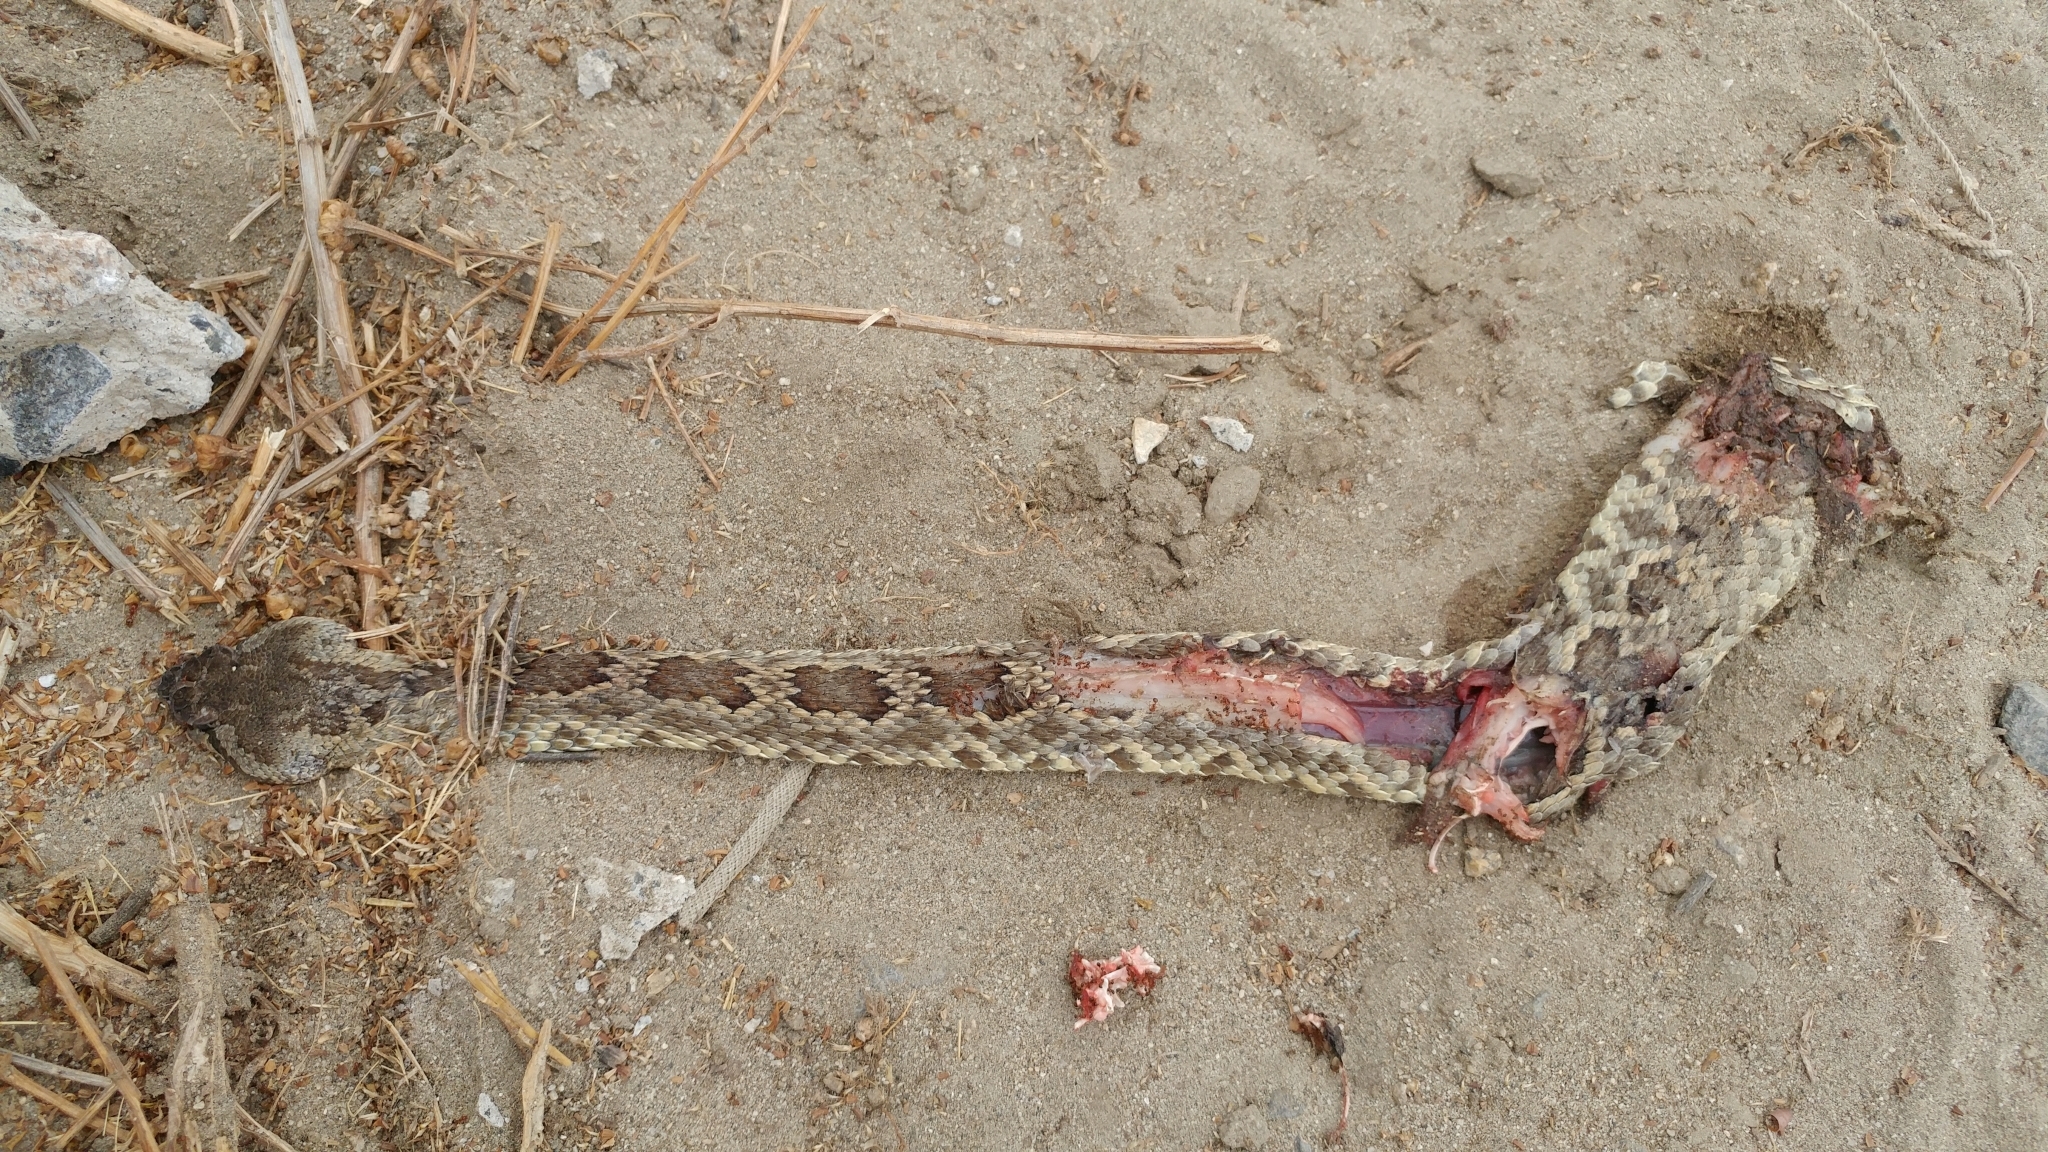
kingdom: Animalia
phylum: Chordata
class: Squamata
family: Viperidae
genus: Crotalus
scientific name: Crotalus oreganus
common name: Abyssus
